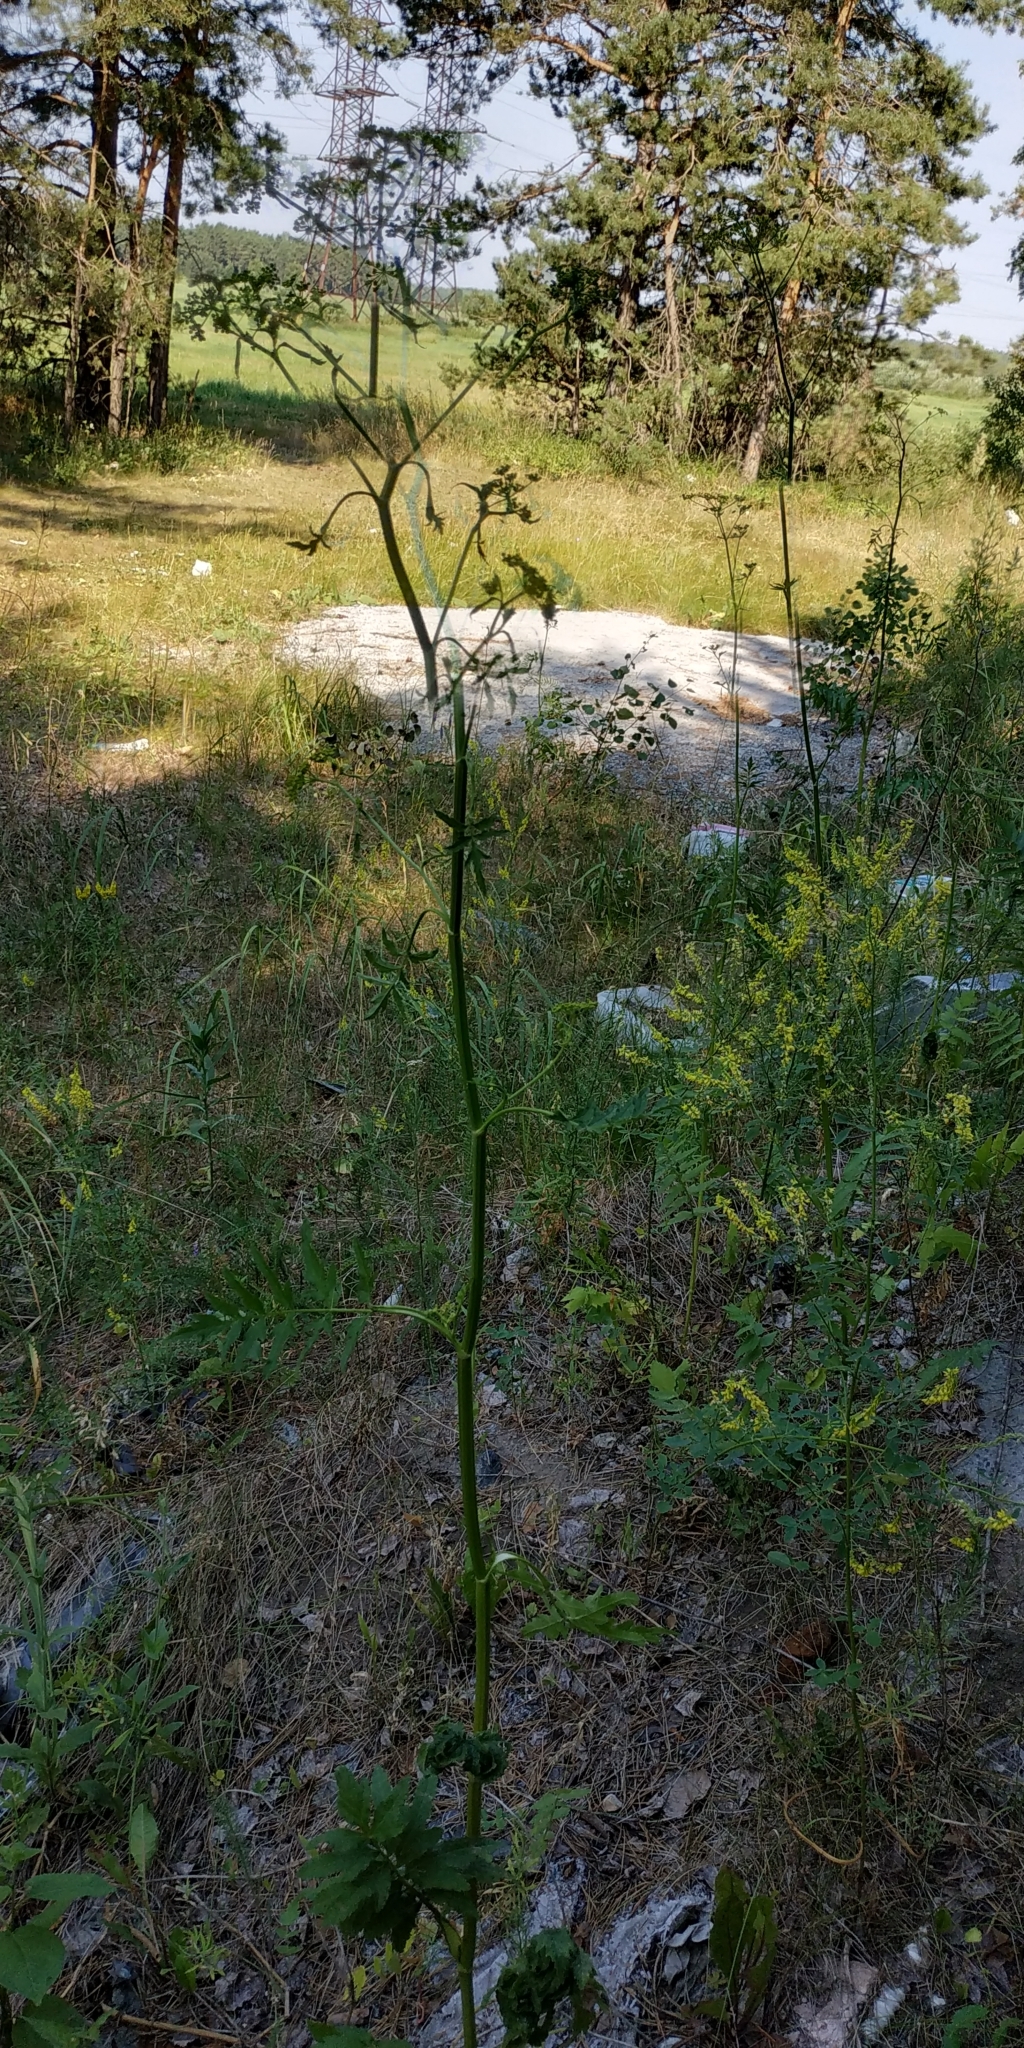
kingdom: Plantae
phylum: Tracheophyta
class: Magnoliopsida
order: Apiales
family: Apiaceae
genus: Pastinaca
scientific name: Pastinaca sativa
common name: Wild parsnip
